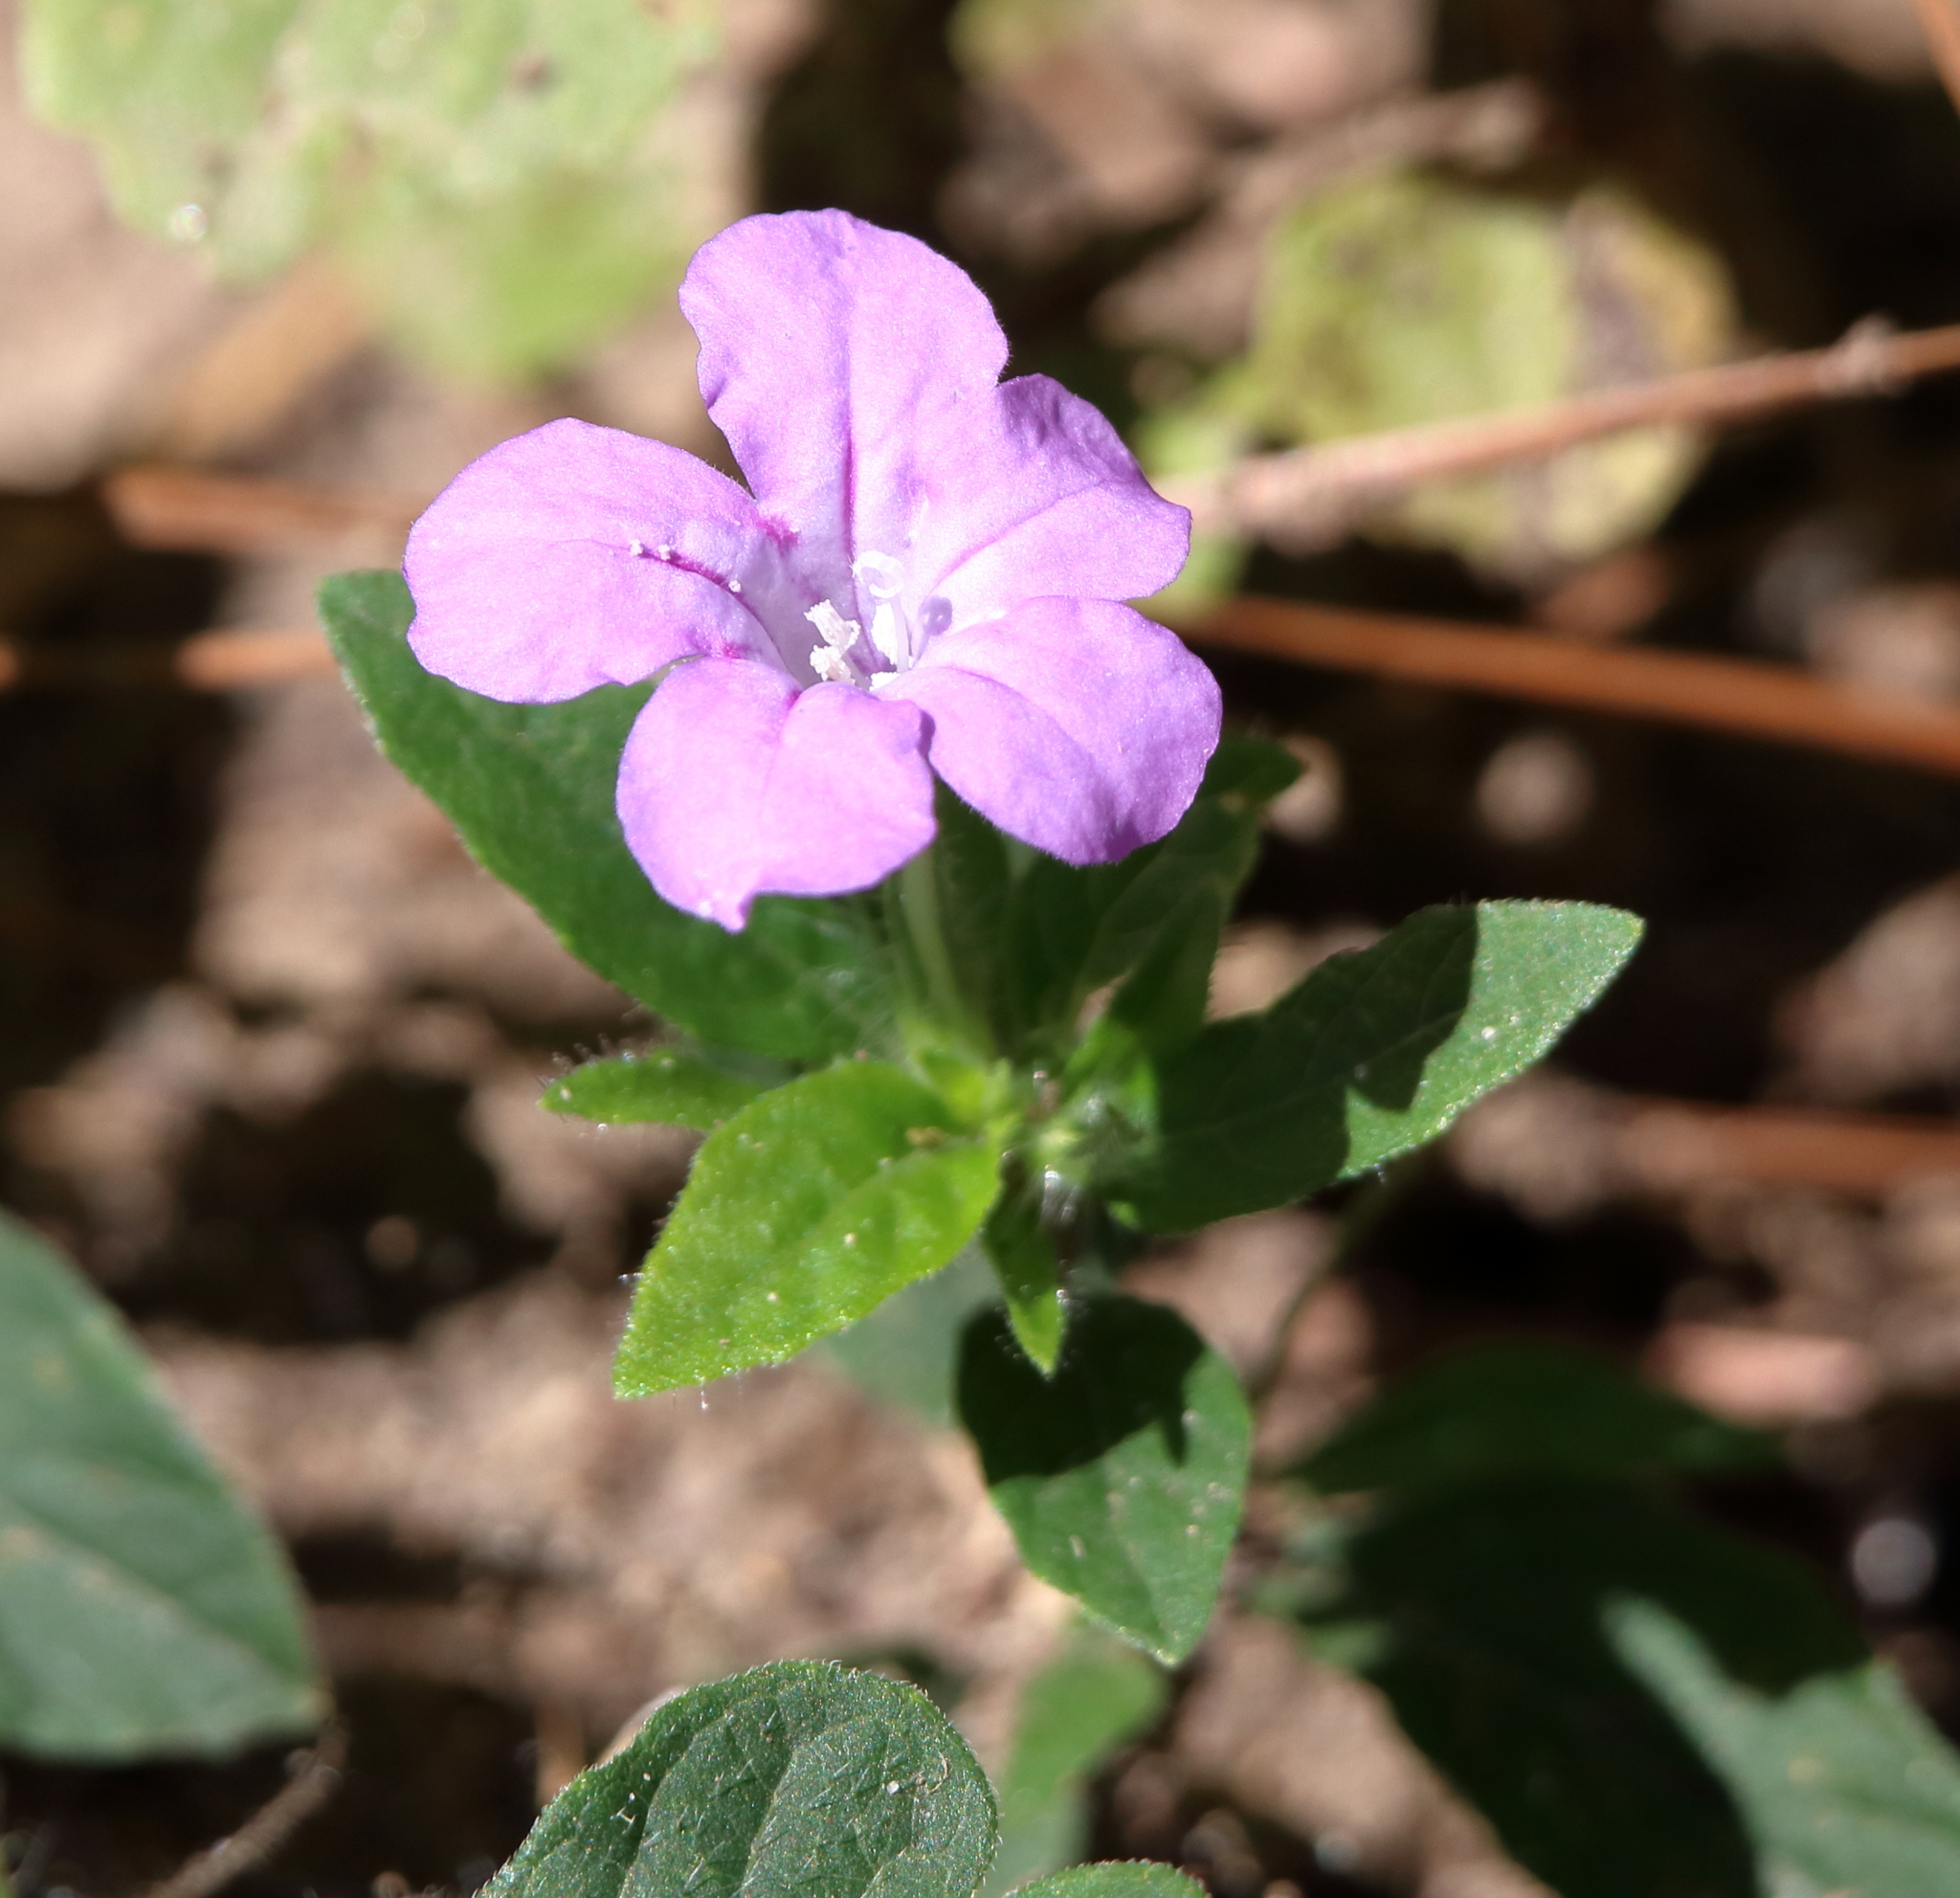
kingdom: Plantae
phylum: Tracheophyta
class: Magnoliopsida
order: Lamiales
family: Acanthaceae
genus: Ruellia
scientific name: Ruellia caroliniensis
